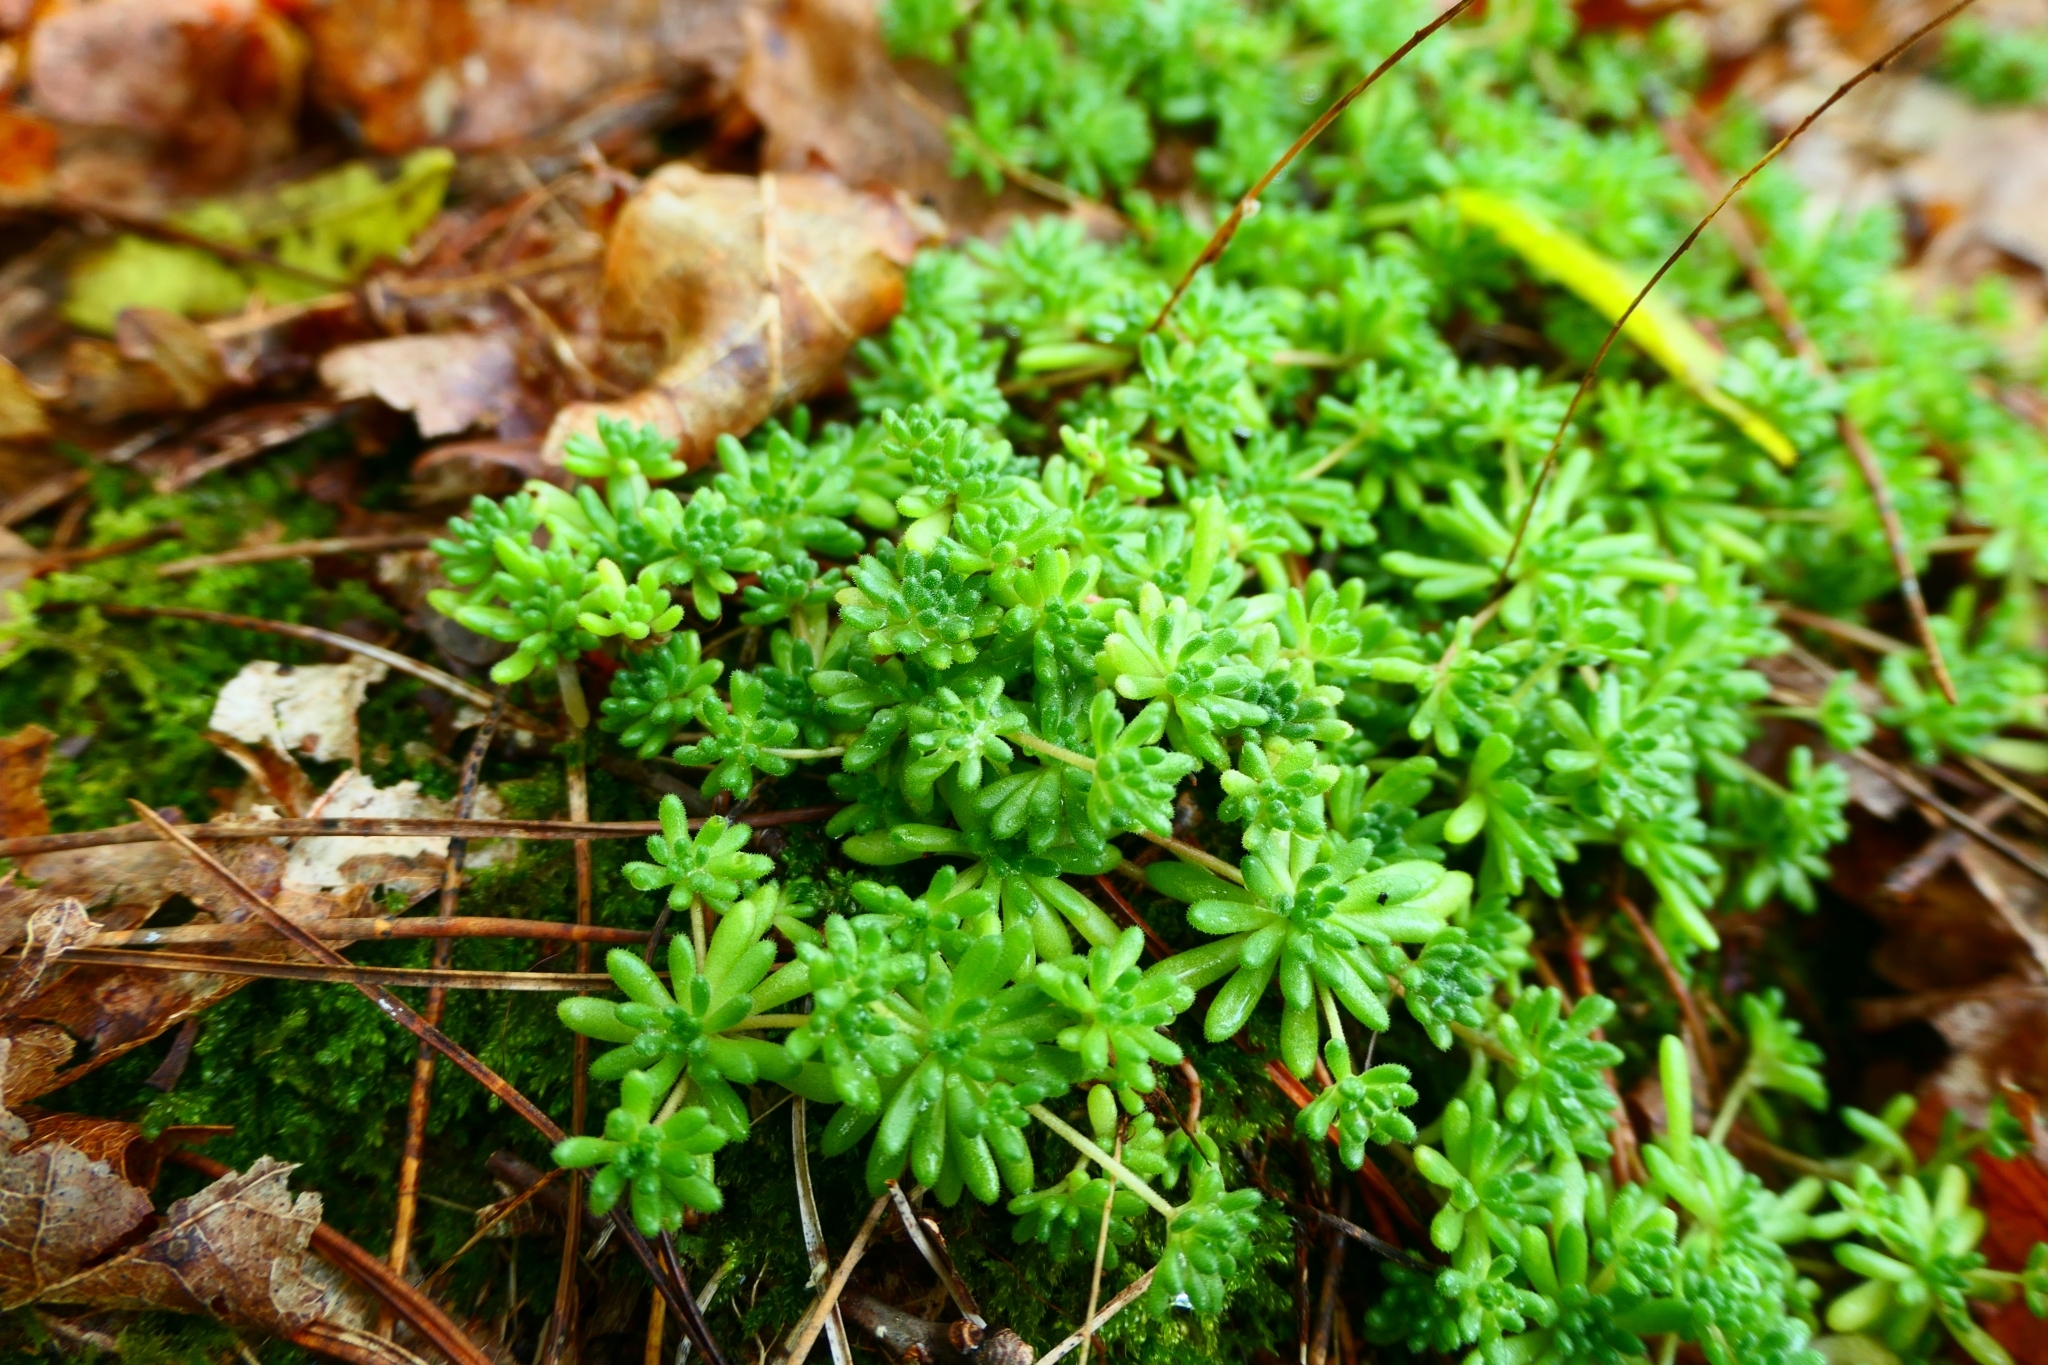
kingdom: Plantae
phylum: Tracheophyta
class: Magnoliopsida
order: Saxifragales
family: Crassulaceae
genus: Sedum
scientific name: Sedum hirsutum
